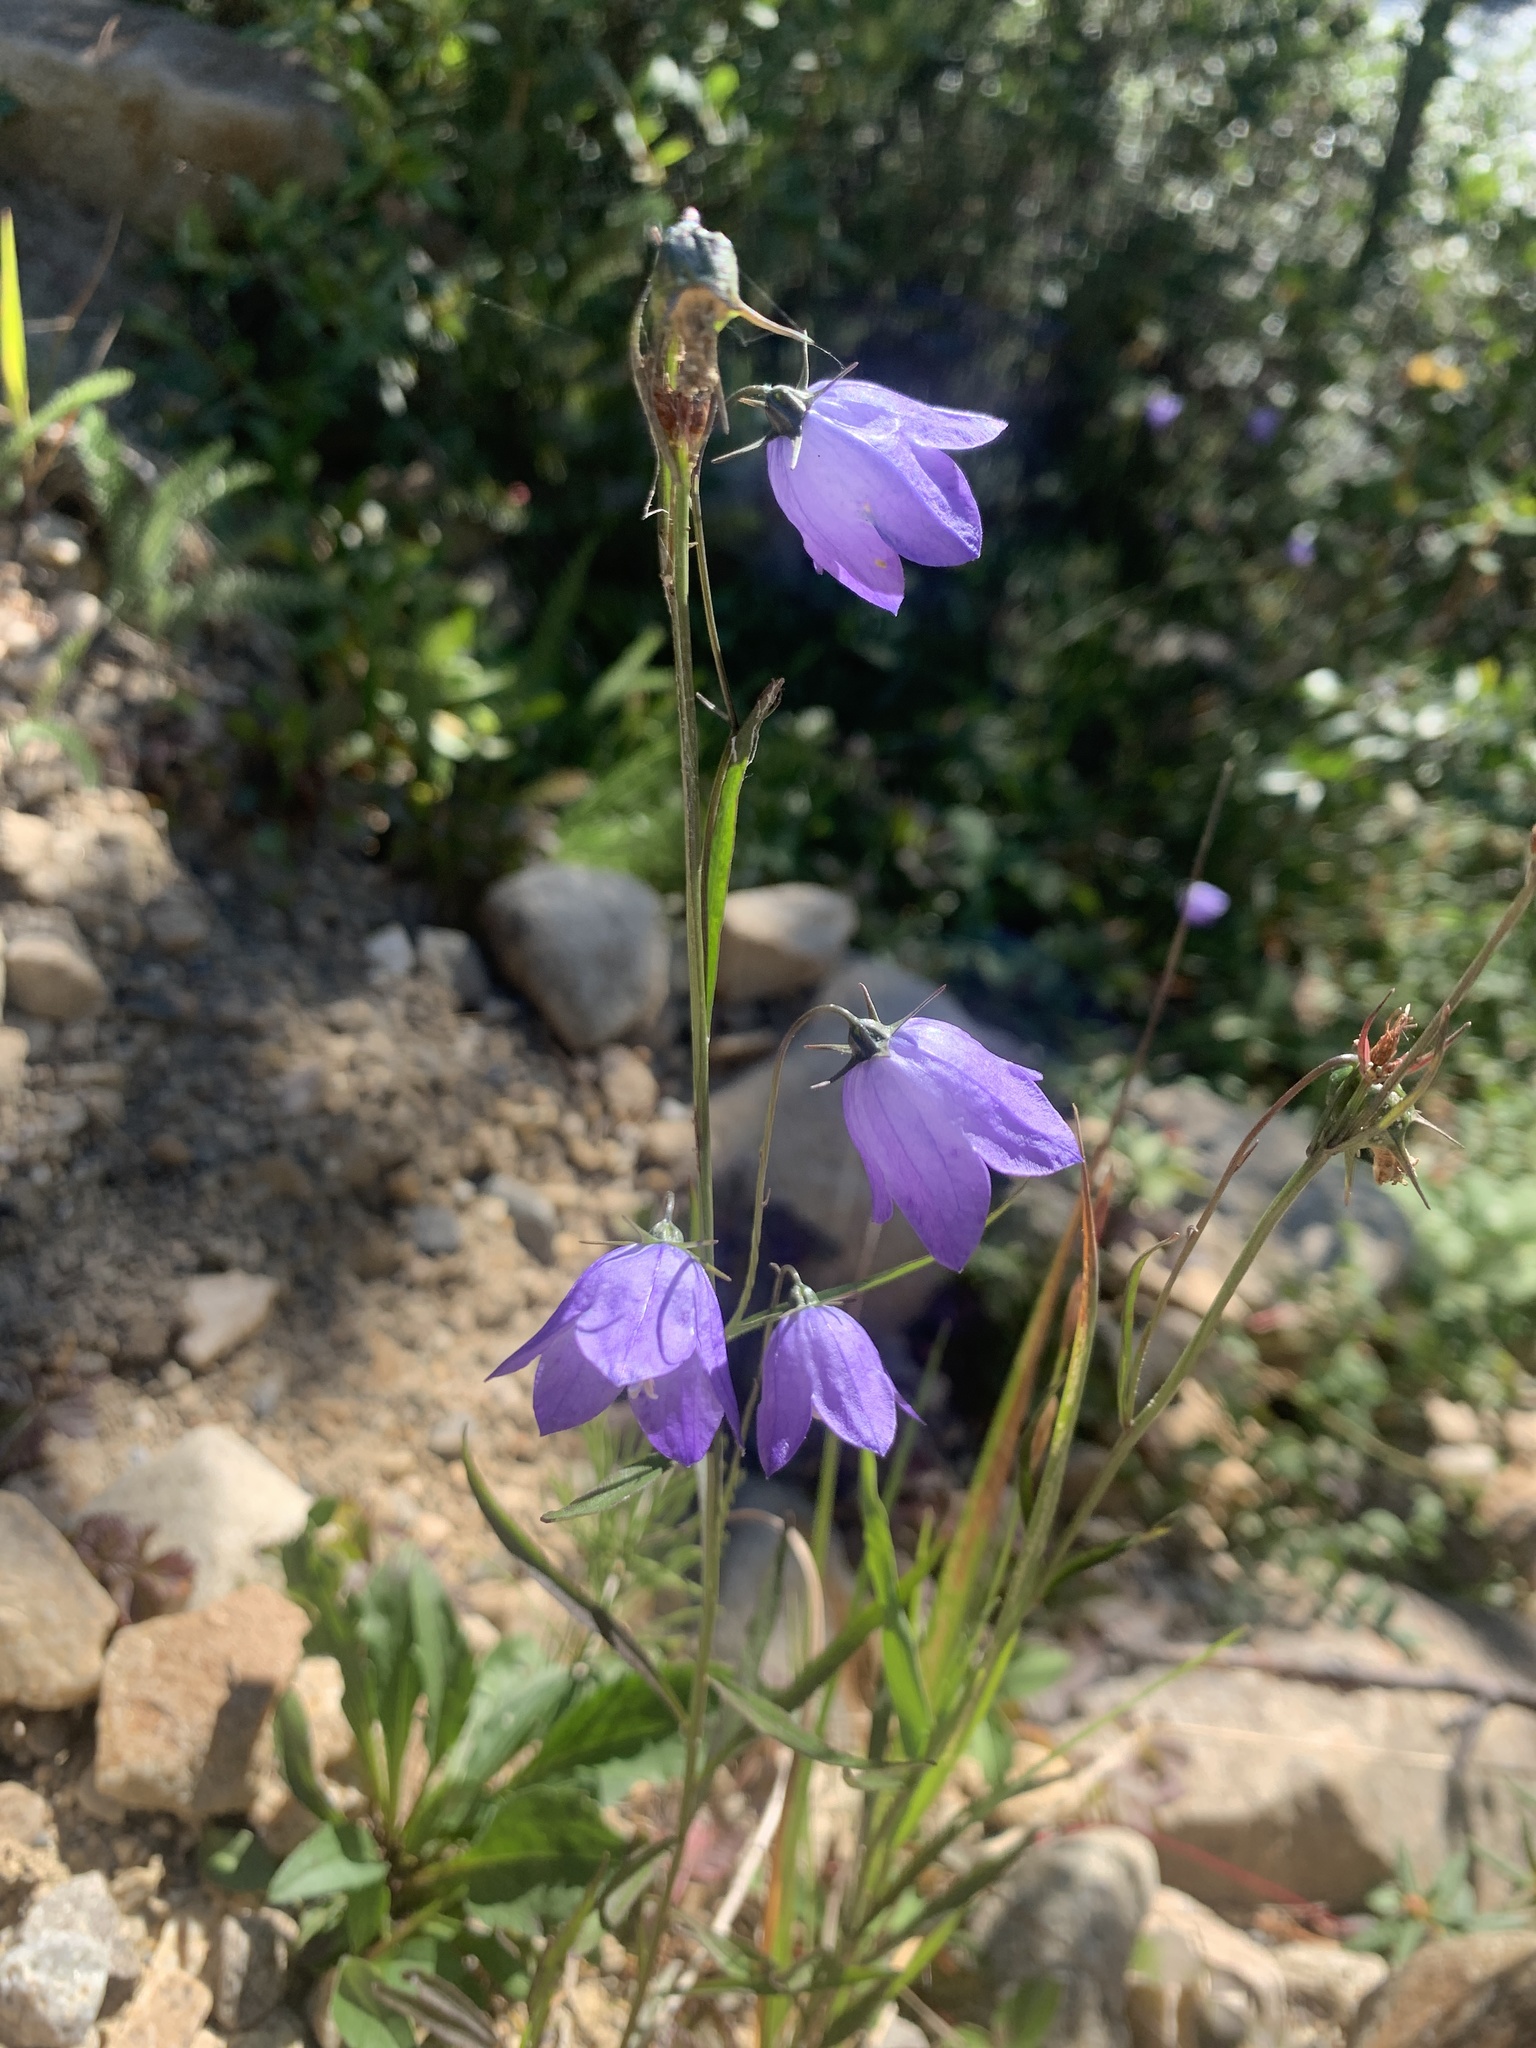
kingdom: Plantae
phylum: Tracheophyta
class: Magnoliopsida
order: Asterales
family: Campanulaceae
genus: Campanula
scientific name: Campanula alaskana
